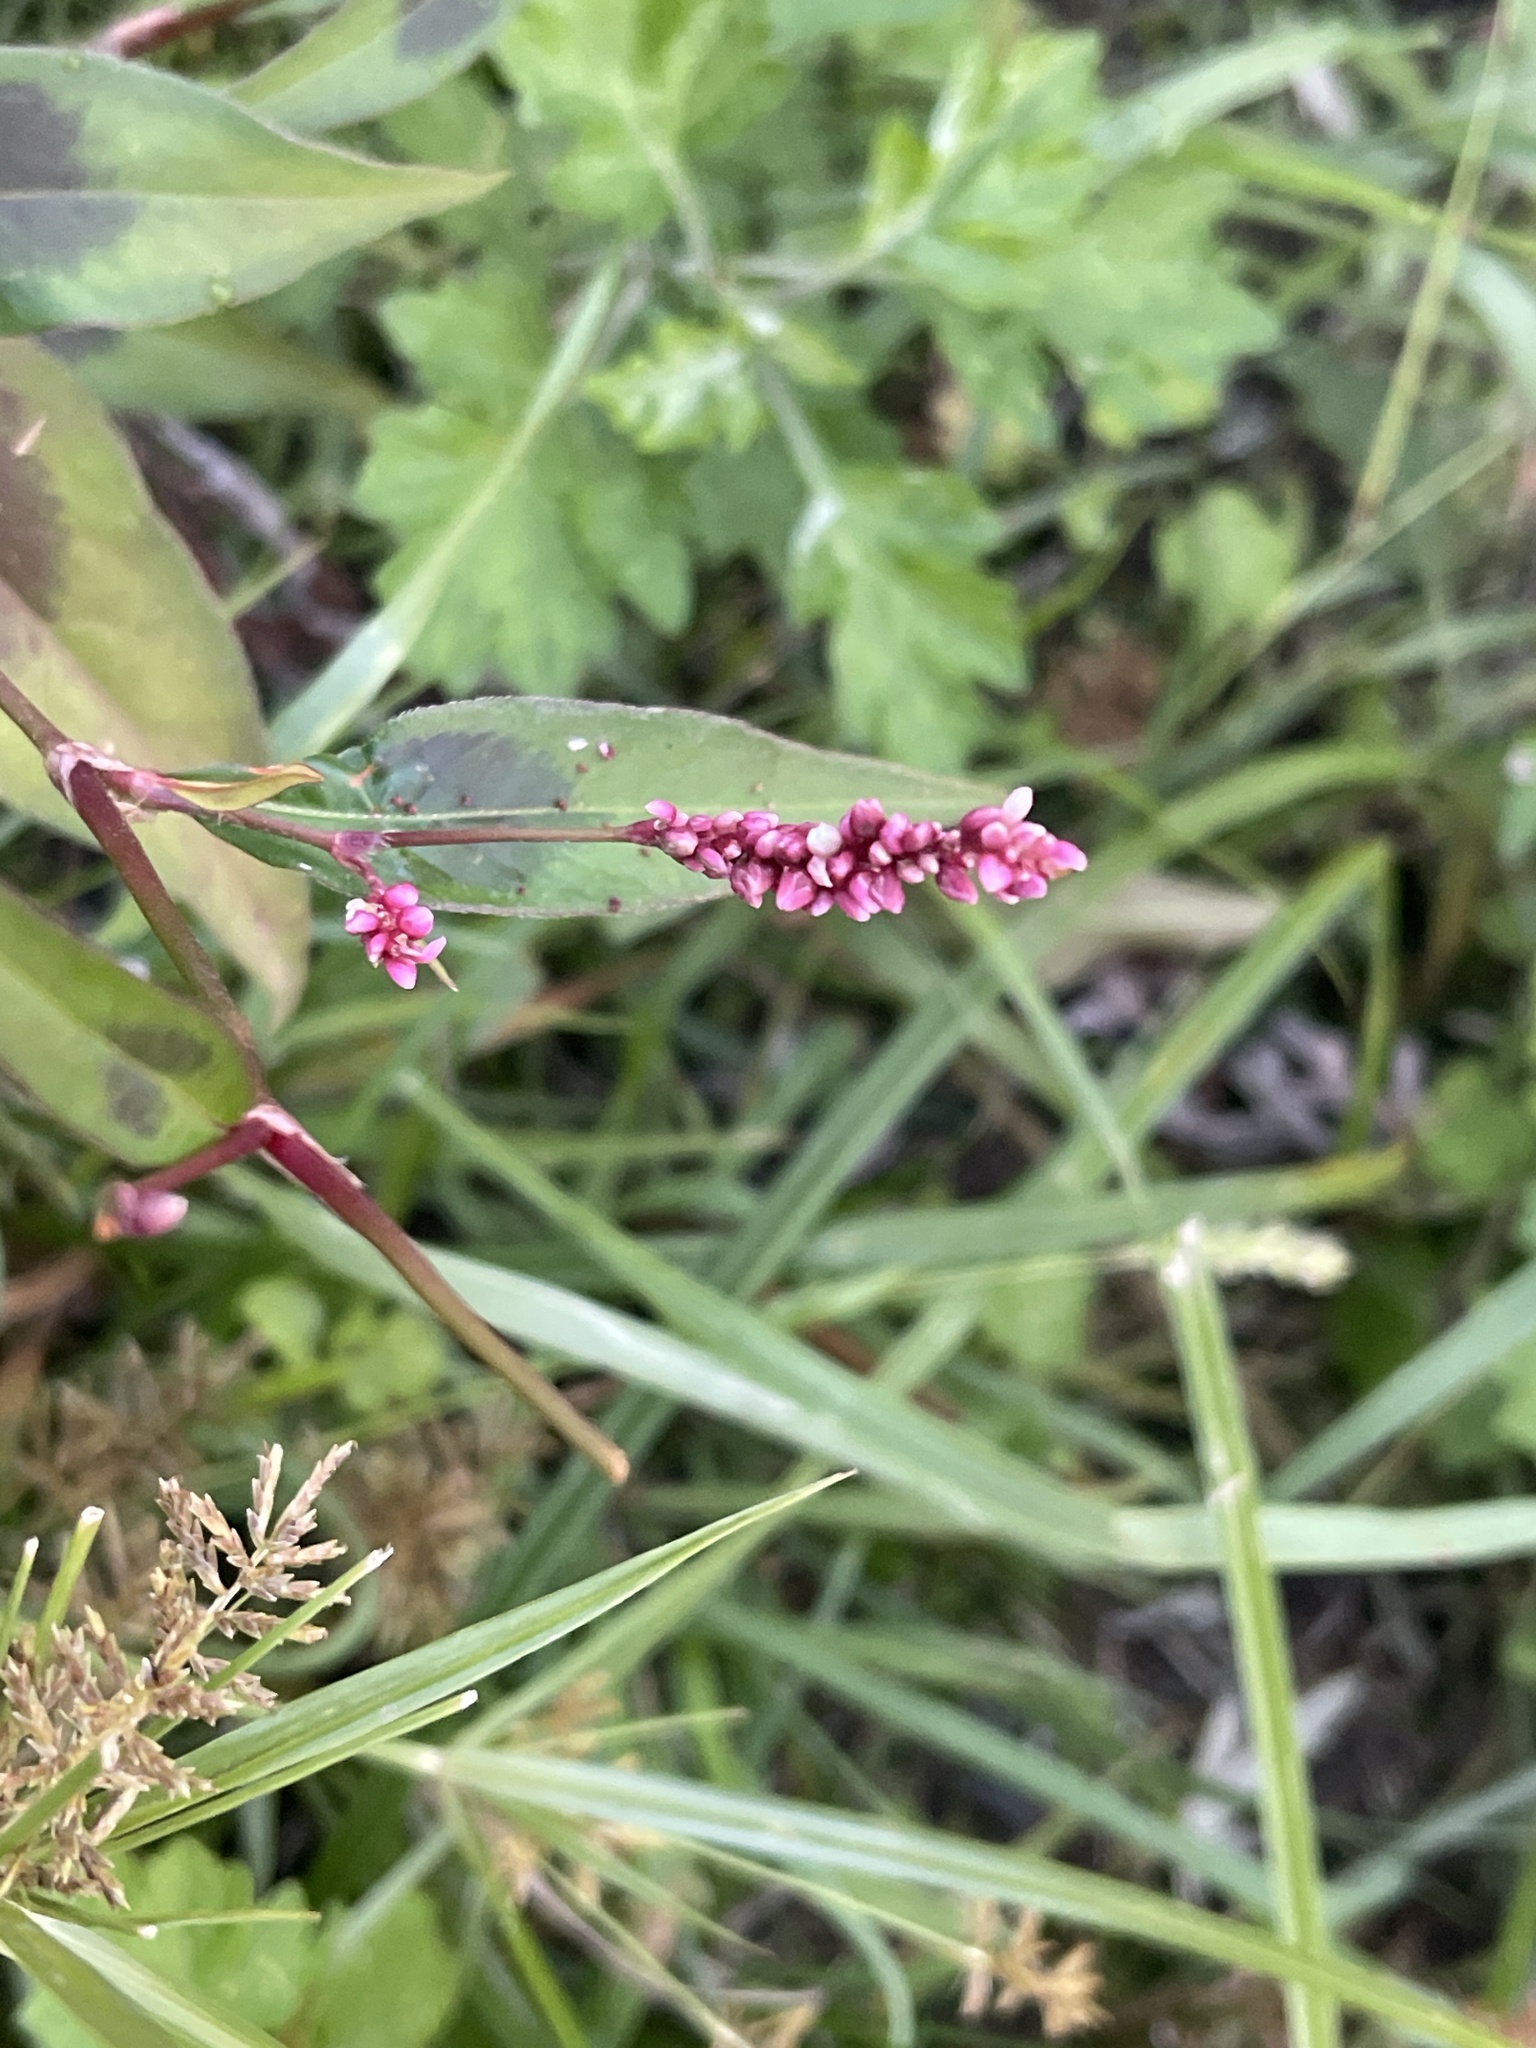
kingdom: Plantae
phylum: Tracheophyta
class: Magnoliopsida
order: Caryophyllales
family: Polygonaceae
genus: Persicaria
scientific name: Persicaria extremiorientalis
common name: Far-eastern smartweed
